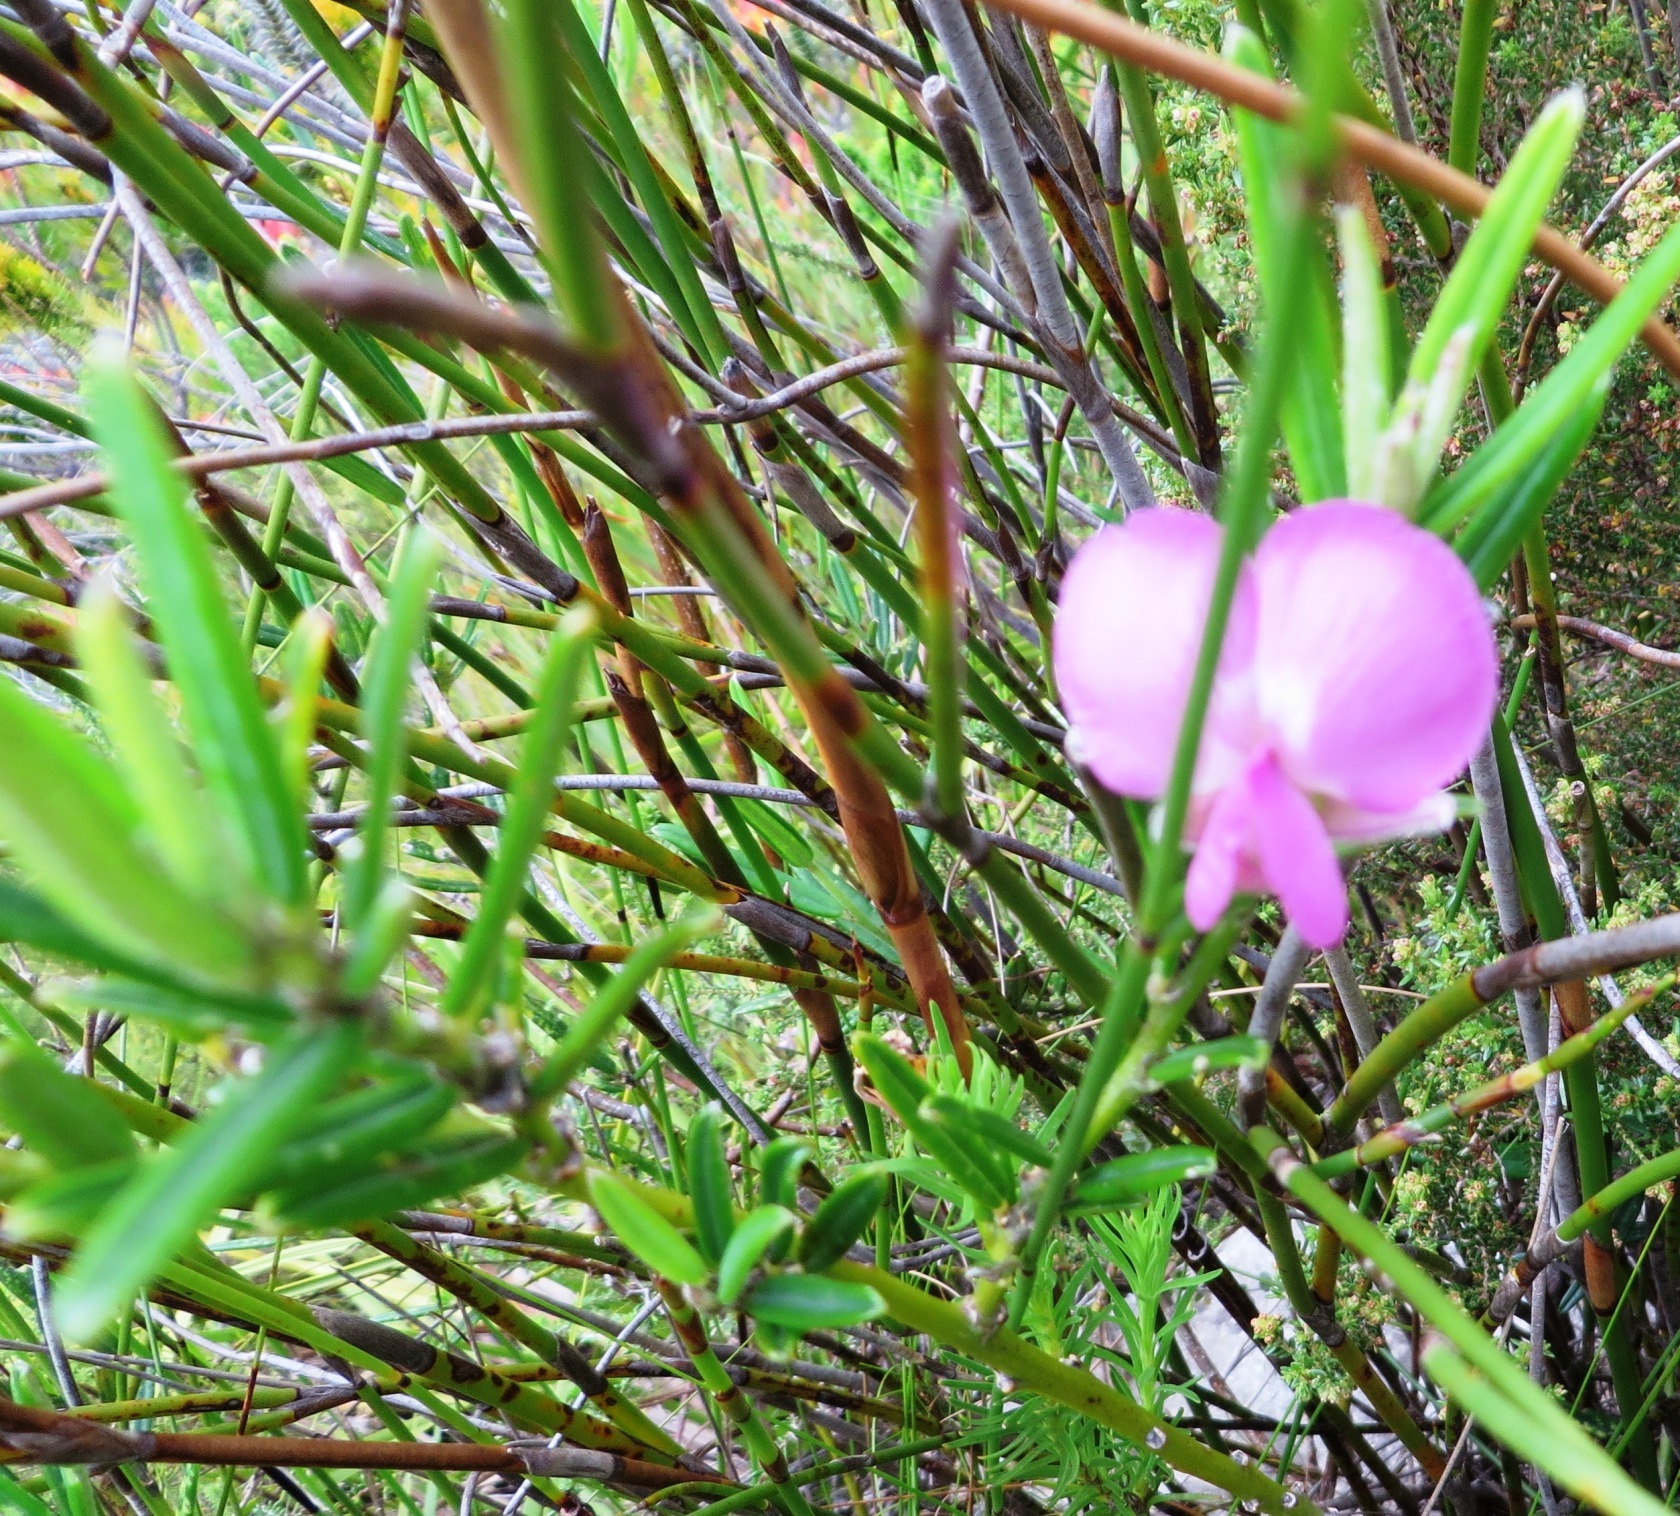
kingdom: Plantae
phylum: Tracheophyta
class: Magnoliopsida
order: Fabales
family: Fabaceae
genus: Podalyria
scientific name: Podalyria oleifolia
